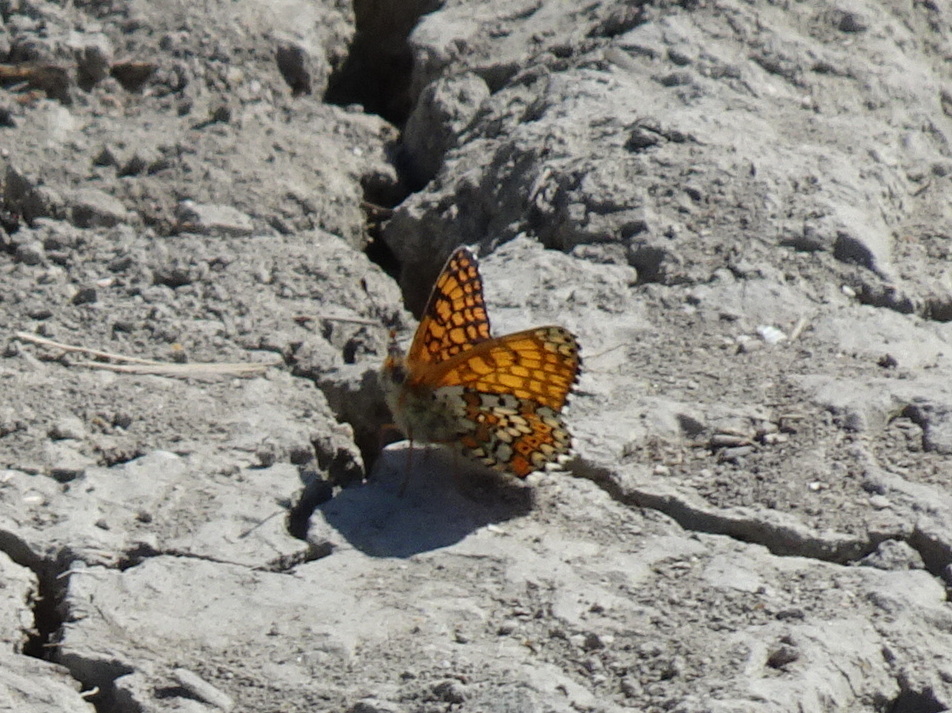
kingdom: Animalia
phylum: Arthropoda
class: Insecta
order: Lepidoptera
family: Nymphalidae
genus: Melitaea
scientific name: Melitaea cinxia
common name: Glanville fritillary
